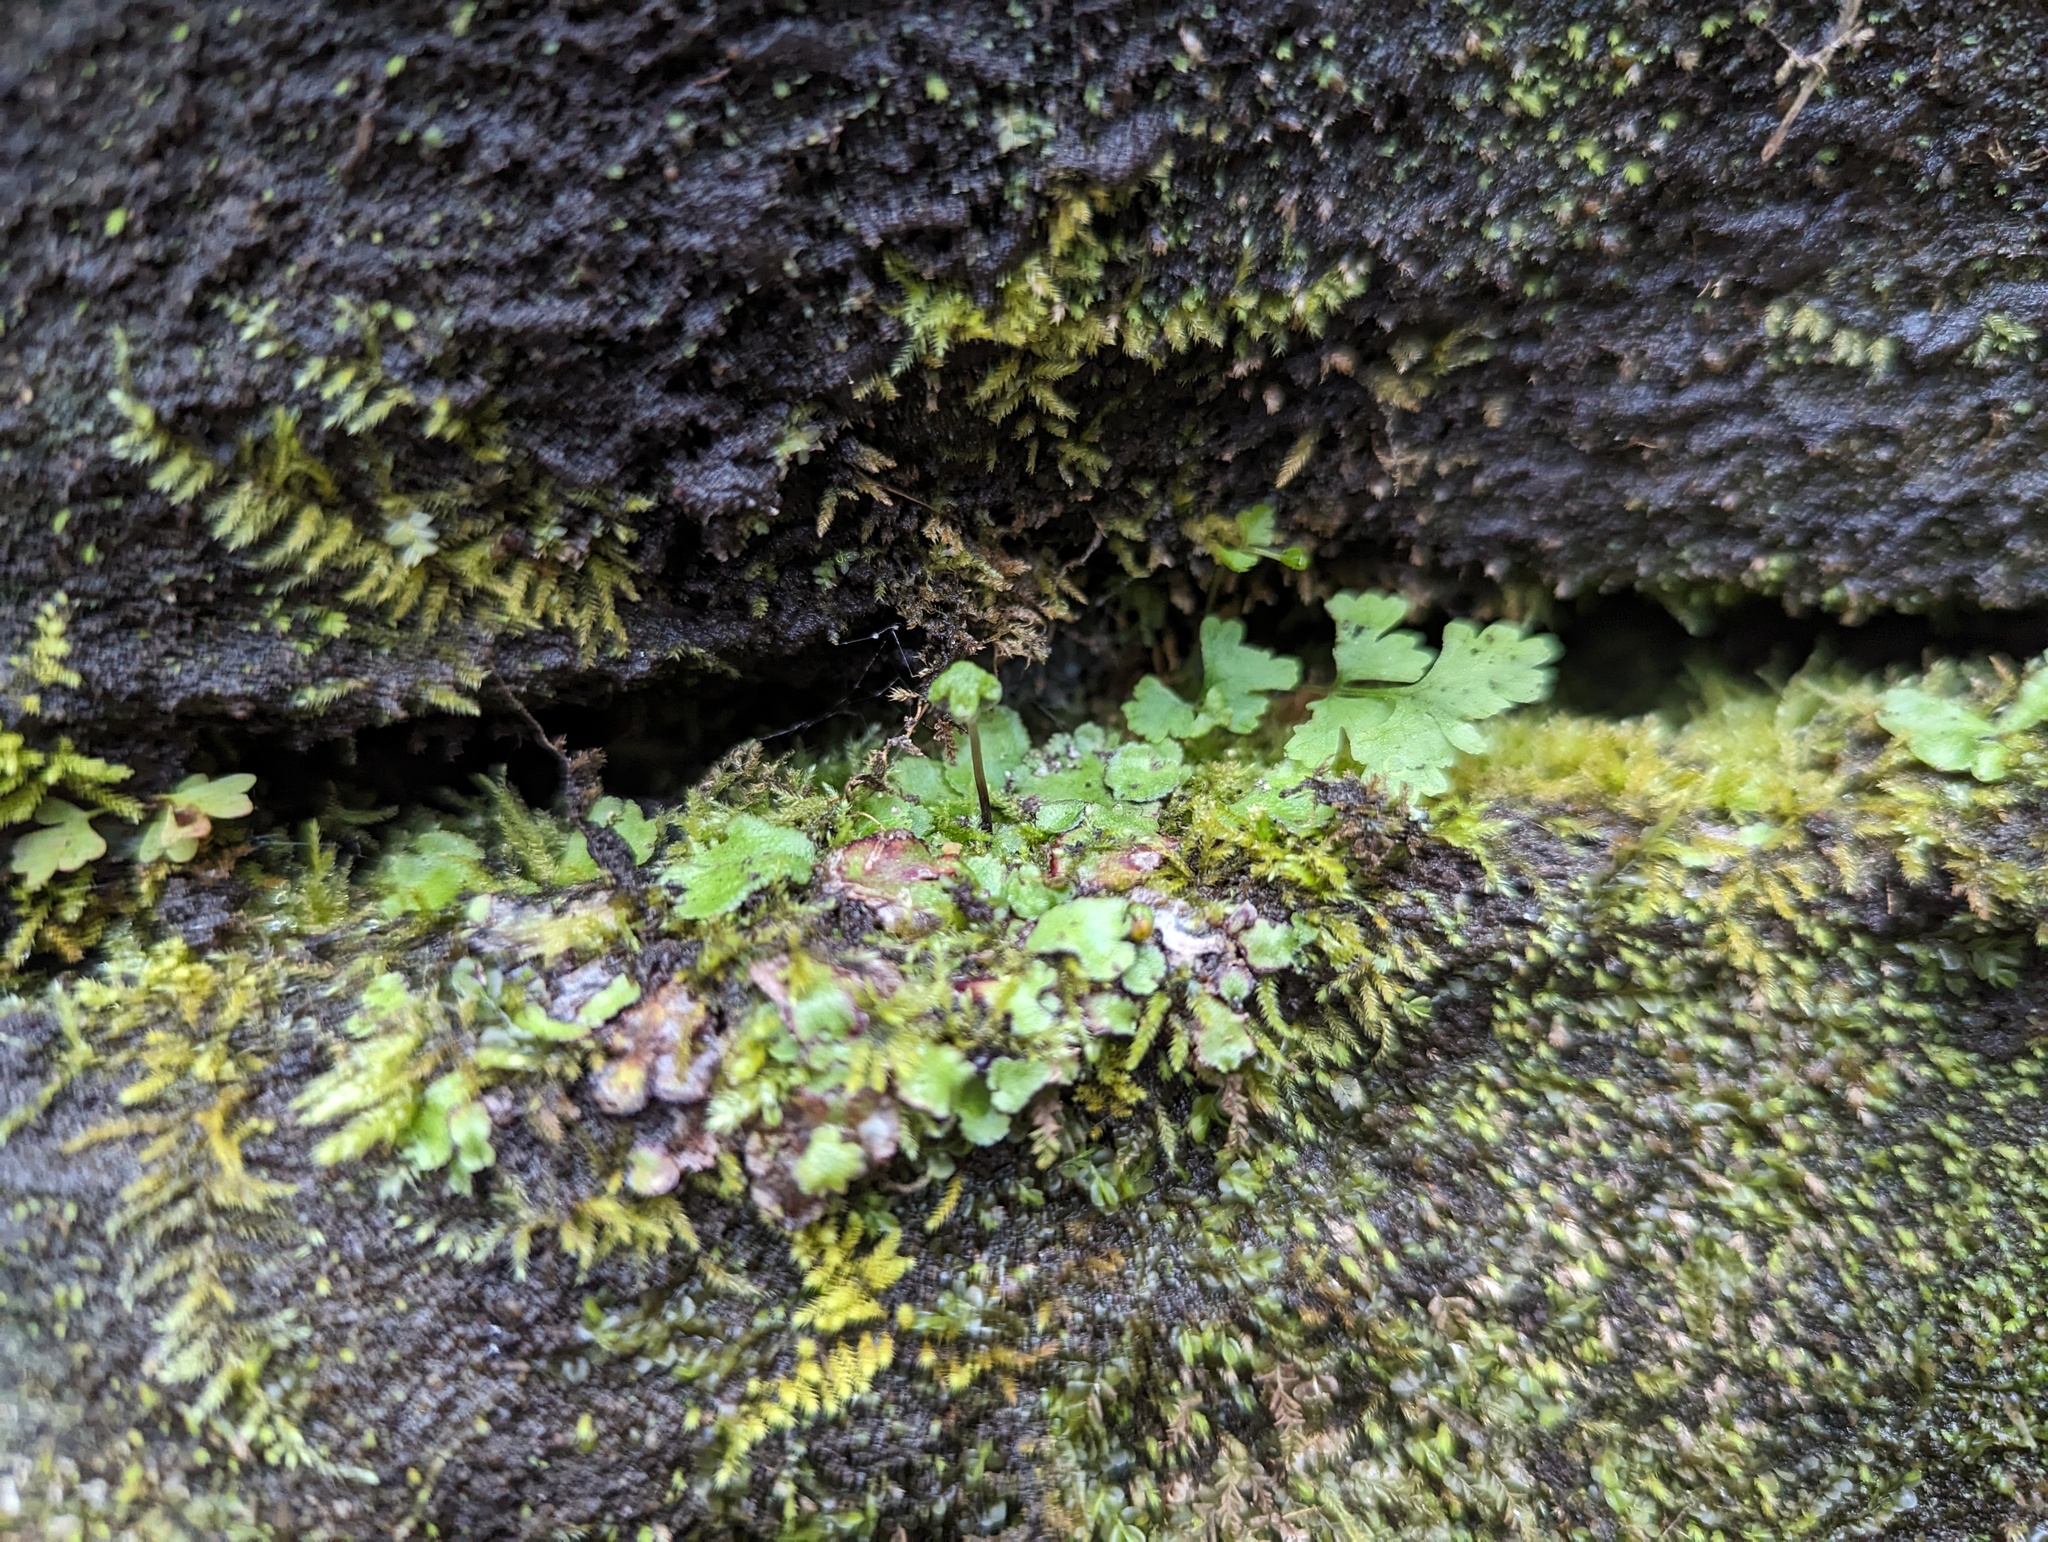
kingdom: Plantae
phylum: Marchantiophyta
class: Marchantiopsida
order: Marchantiales
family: Aytoniaceae
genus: Reboulia
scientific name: Reboulia hemisphaerica
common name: Purple-margined liverwort
